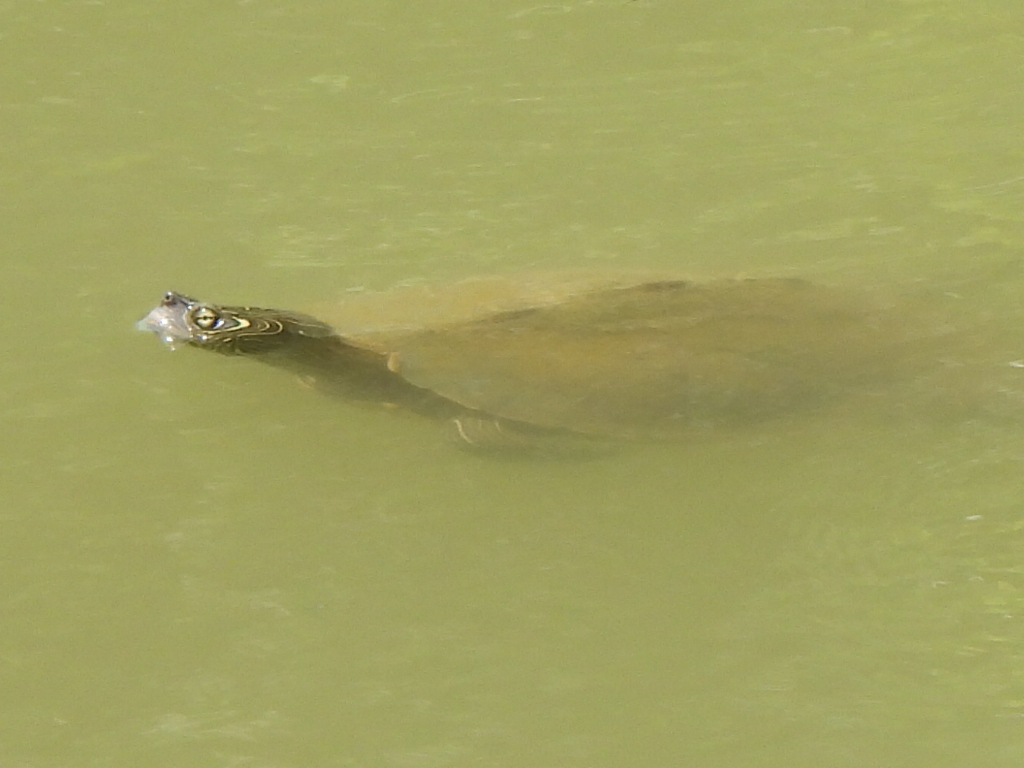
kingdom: Animalia
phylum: Chordata
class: Testudines
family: Emydidae
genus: Graptemys
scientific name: Graptemys pseudogeographica
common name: False map turtle
